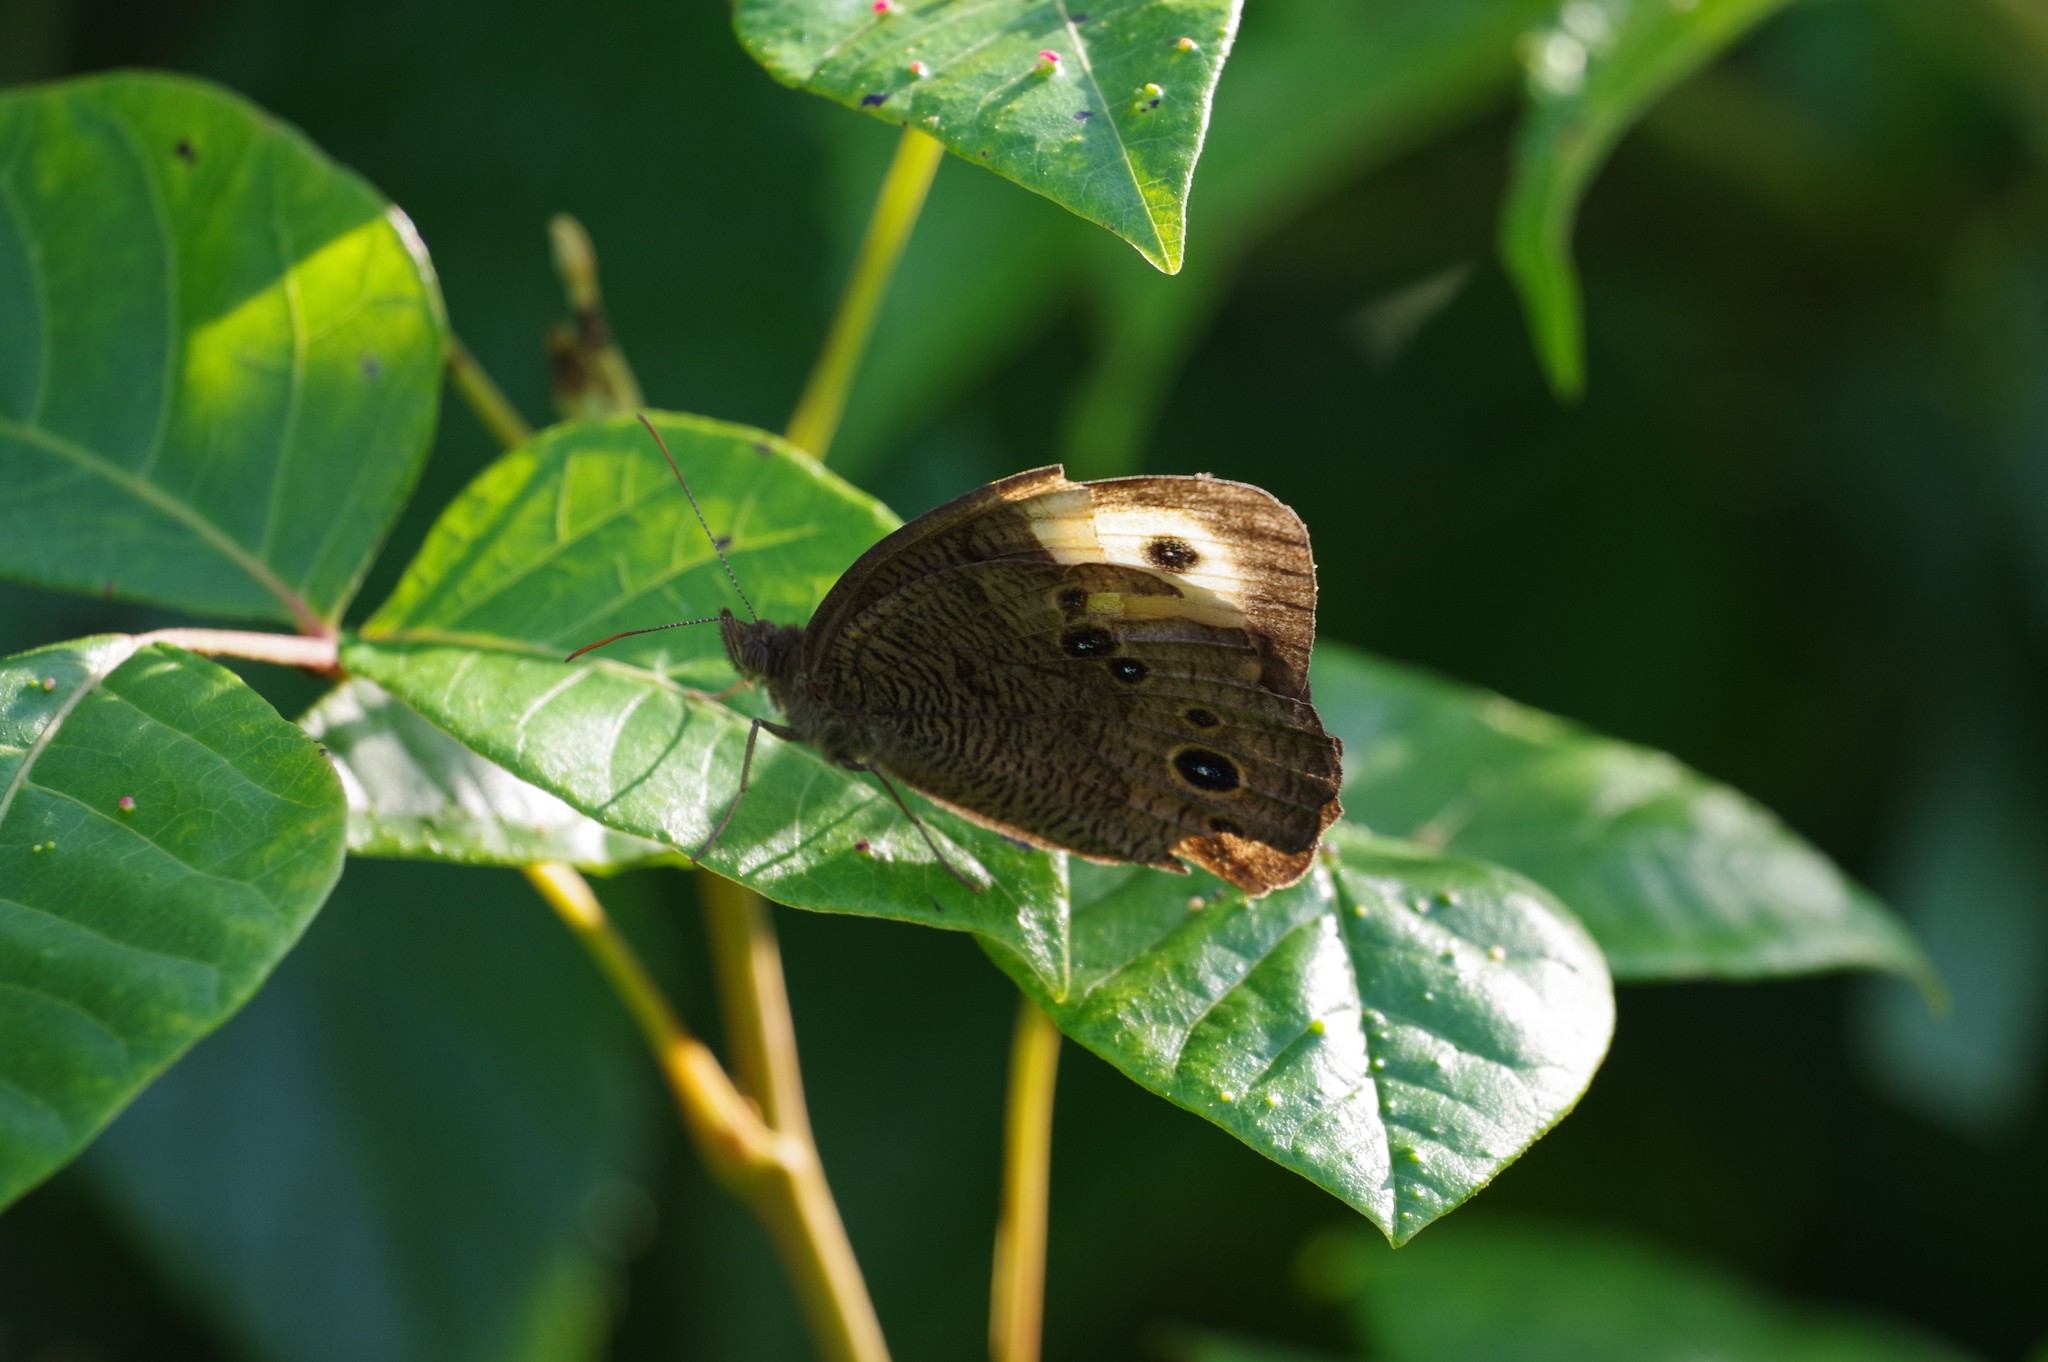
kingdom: Animalia
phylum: Arthropoda
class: Insecta
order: Lepidoptera
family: Nymphalidae
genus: Cercyonis
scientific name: Cercyonis pegala
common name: Common wood-nymph
